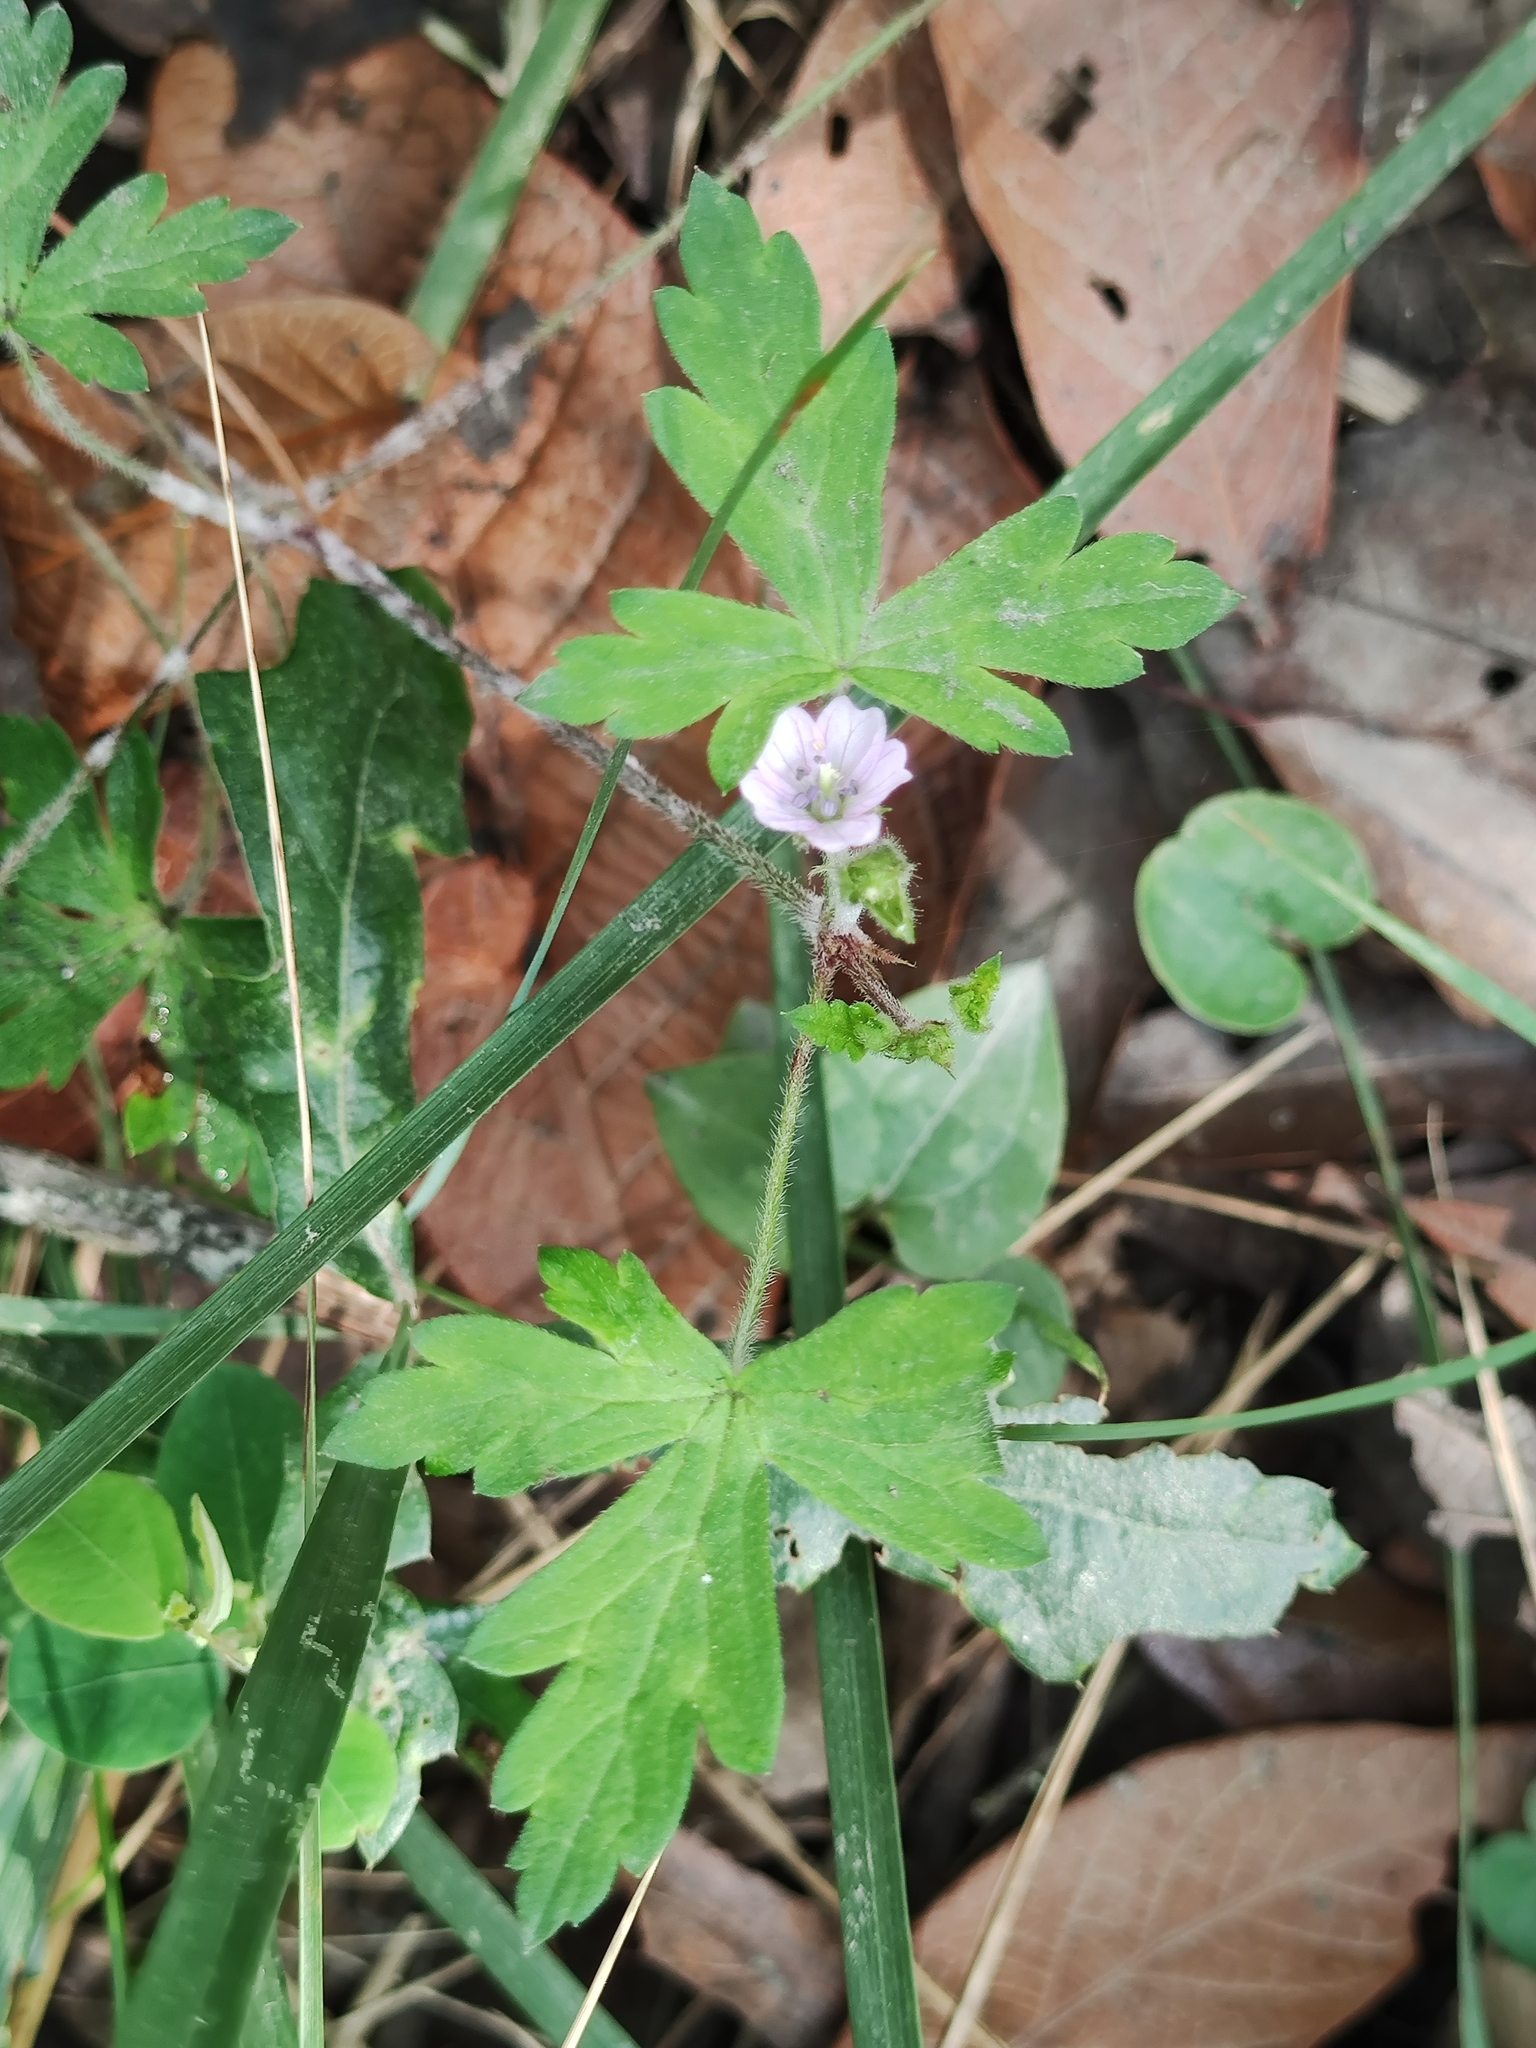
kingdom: Plantae
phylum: Tracheophyta
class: Magnoliopsida
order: Geraniales
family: Geraniaceae
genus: Geranium
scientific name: Geranium seemannii
